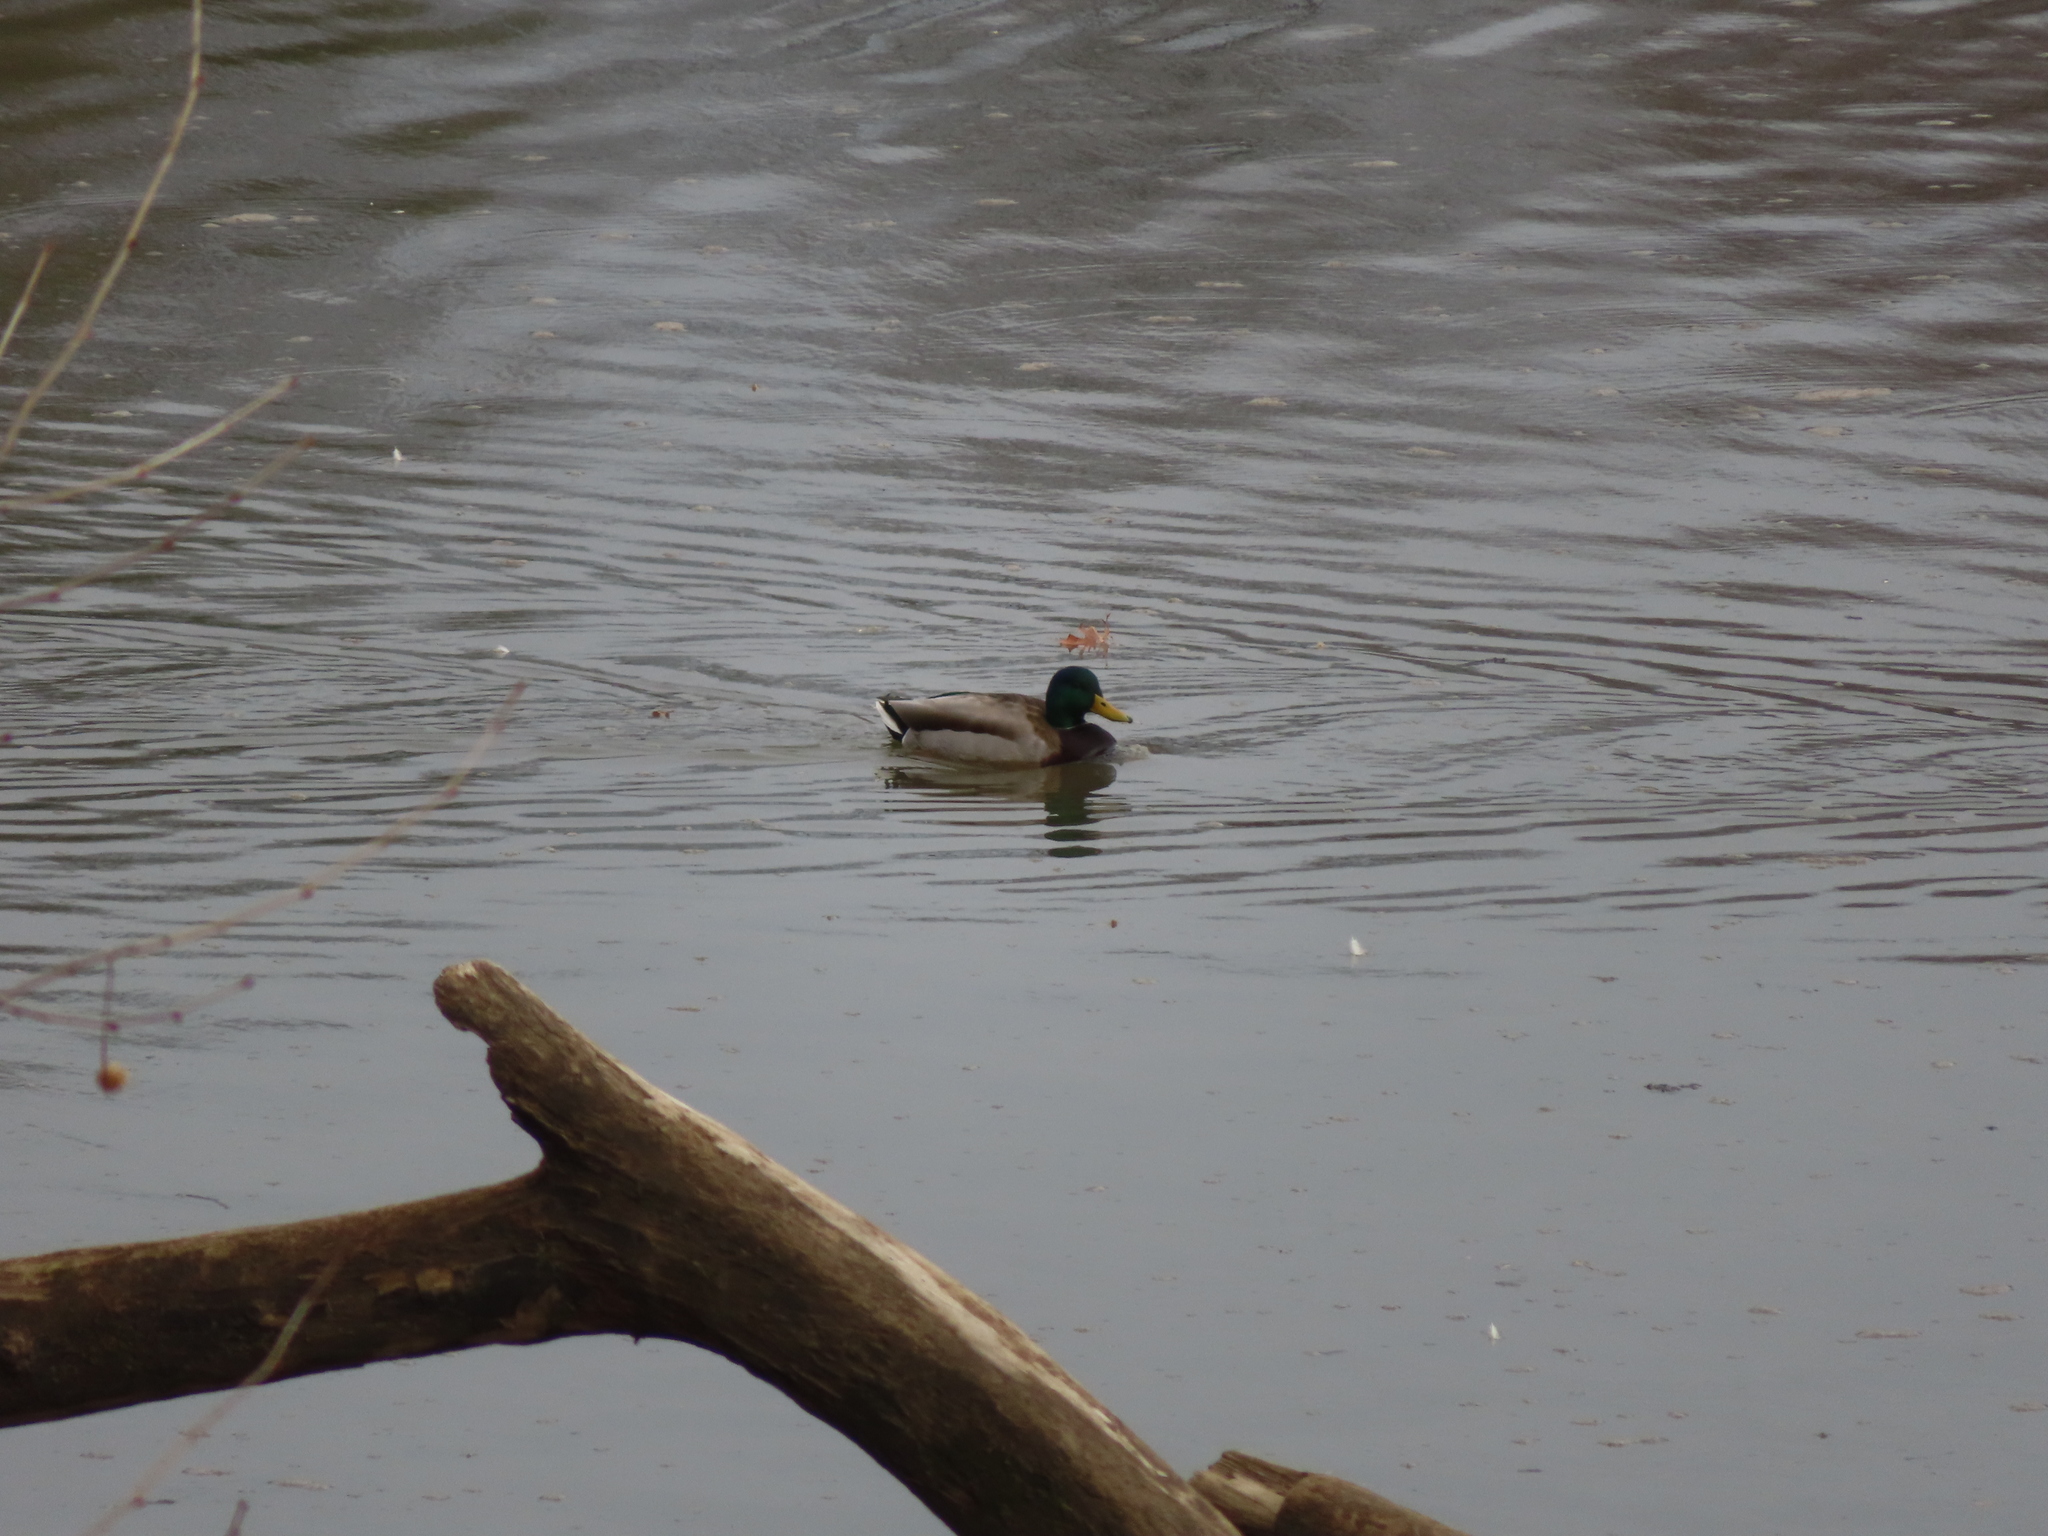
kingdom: Animalia
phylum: Chordata
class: Aves
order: Anseriformes
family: Anatidae
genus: Anas
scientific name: Anas platyrhynchos
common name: Mallard
